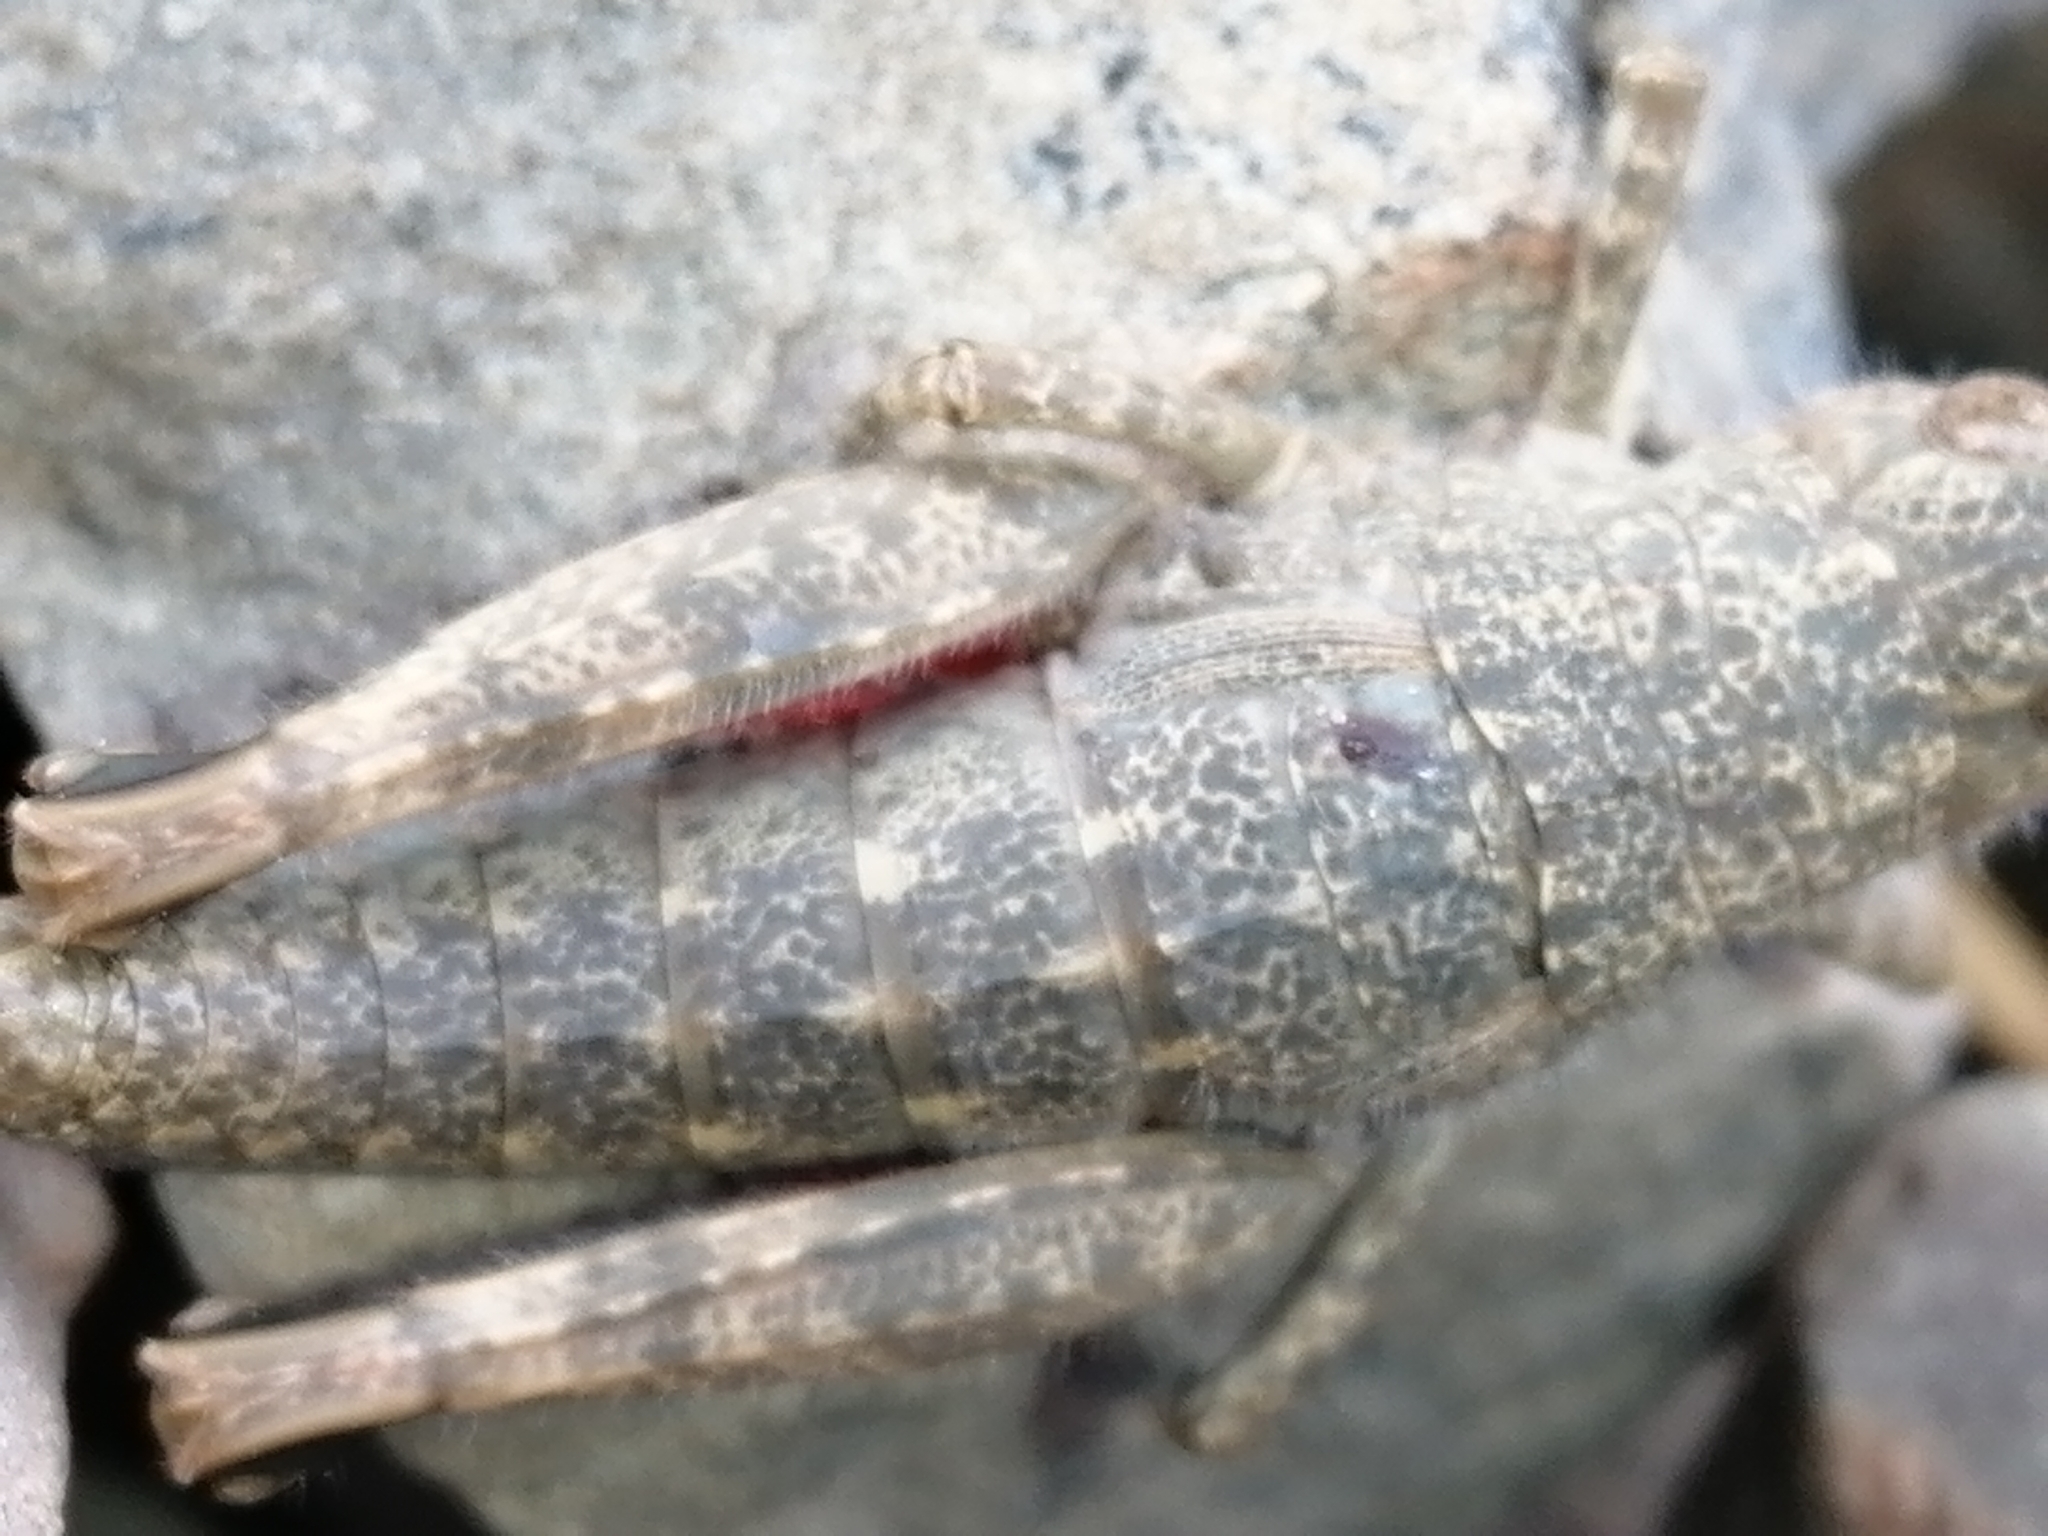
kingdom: Animalia
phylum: Arthropoda
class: Insecta
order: Orthoptera
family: Acrididae
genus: Sigaus
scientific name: Sigaus
